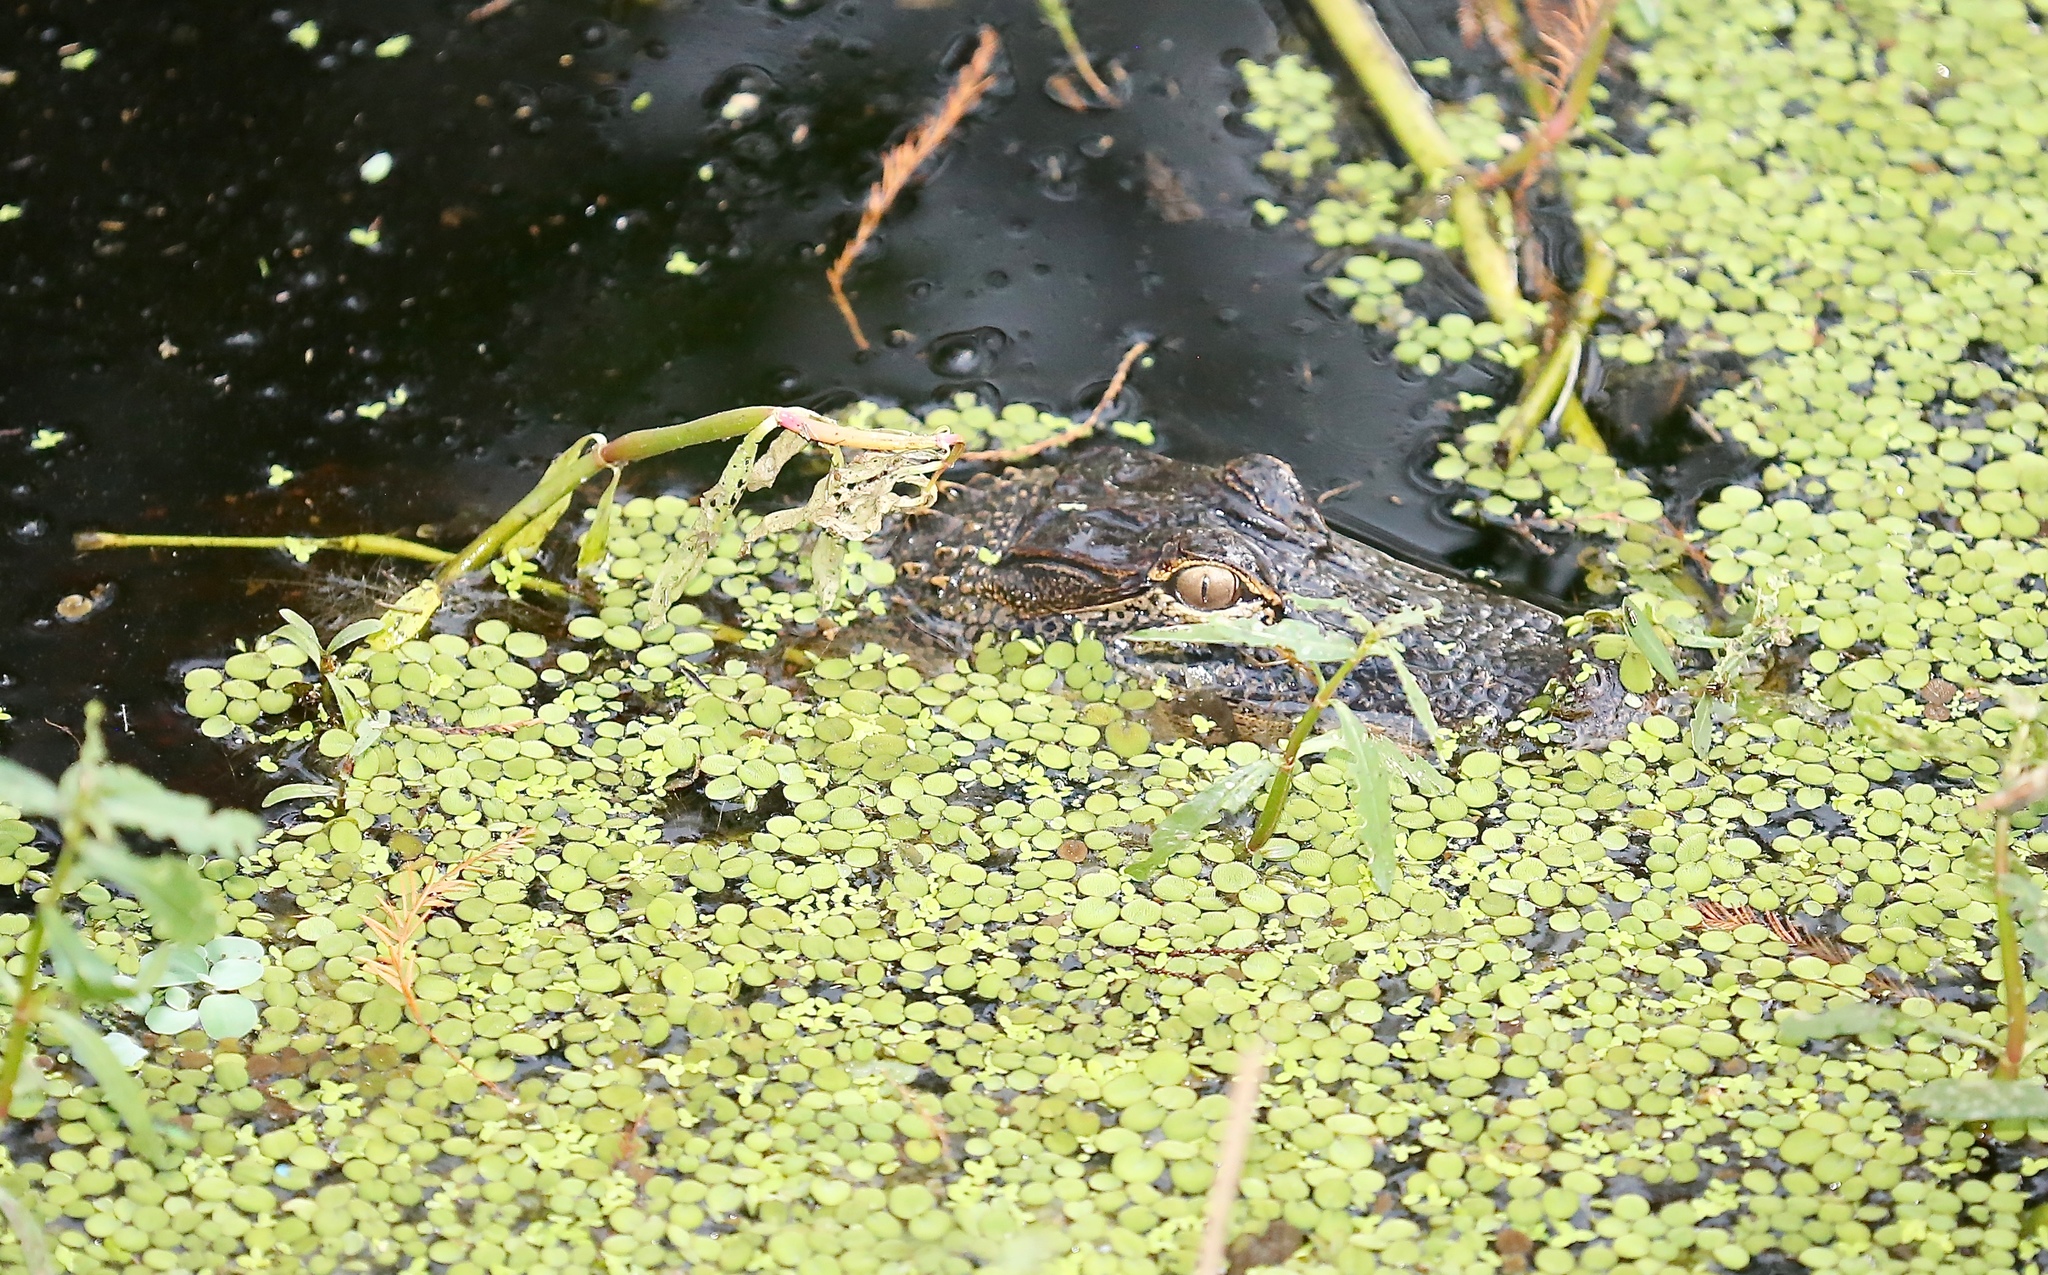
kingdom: Animalia
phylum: Chordata
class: Crocodylia
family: Alligatoridae
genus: Alligator
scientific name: Alligator mississippiensis
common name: American alligator
